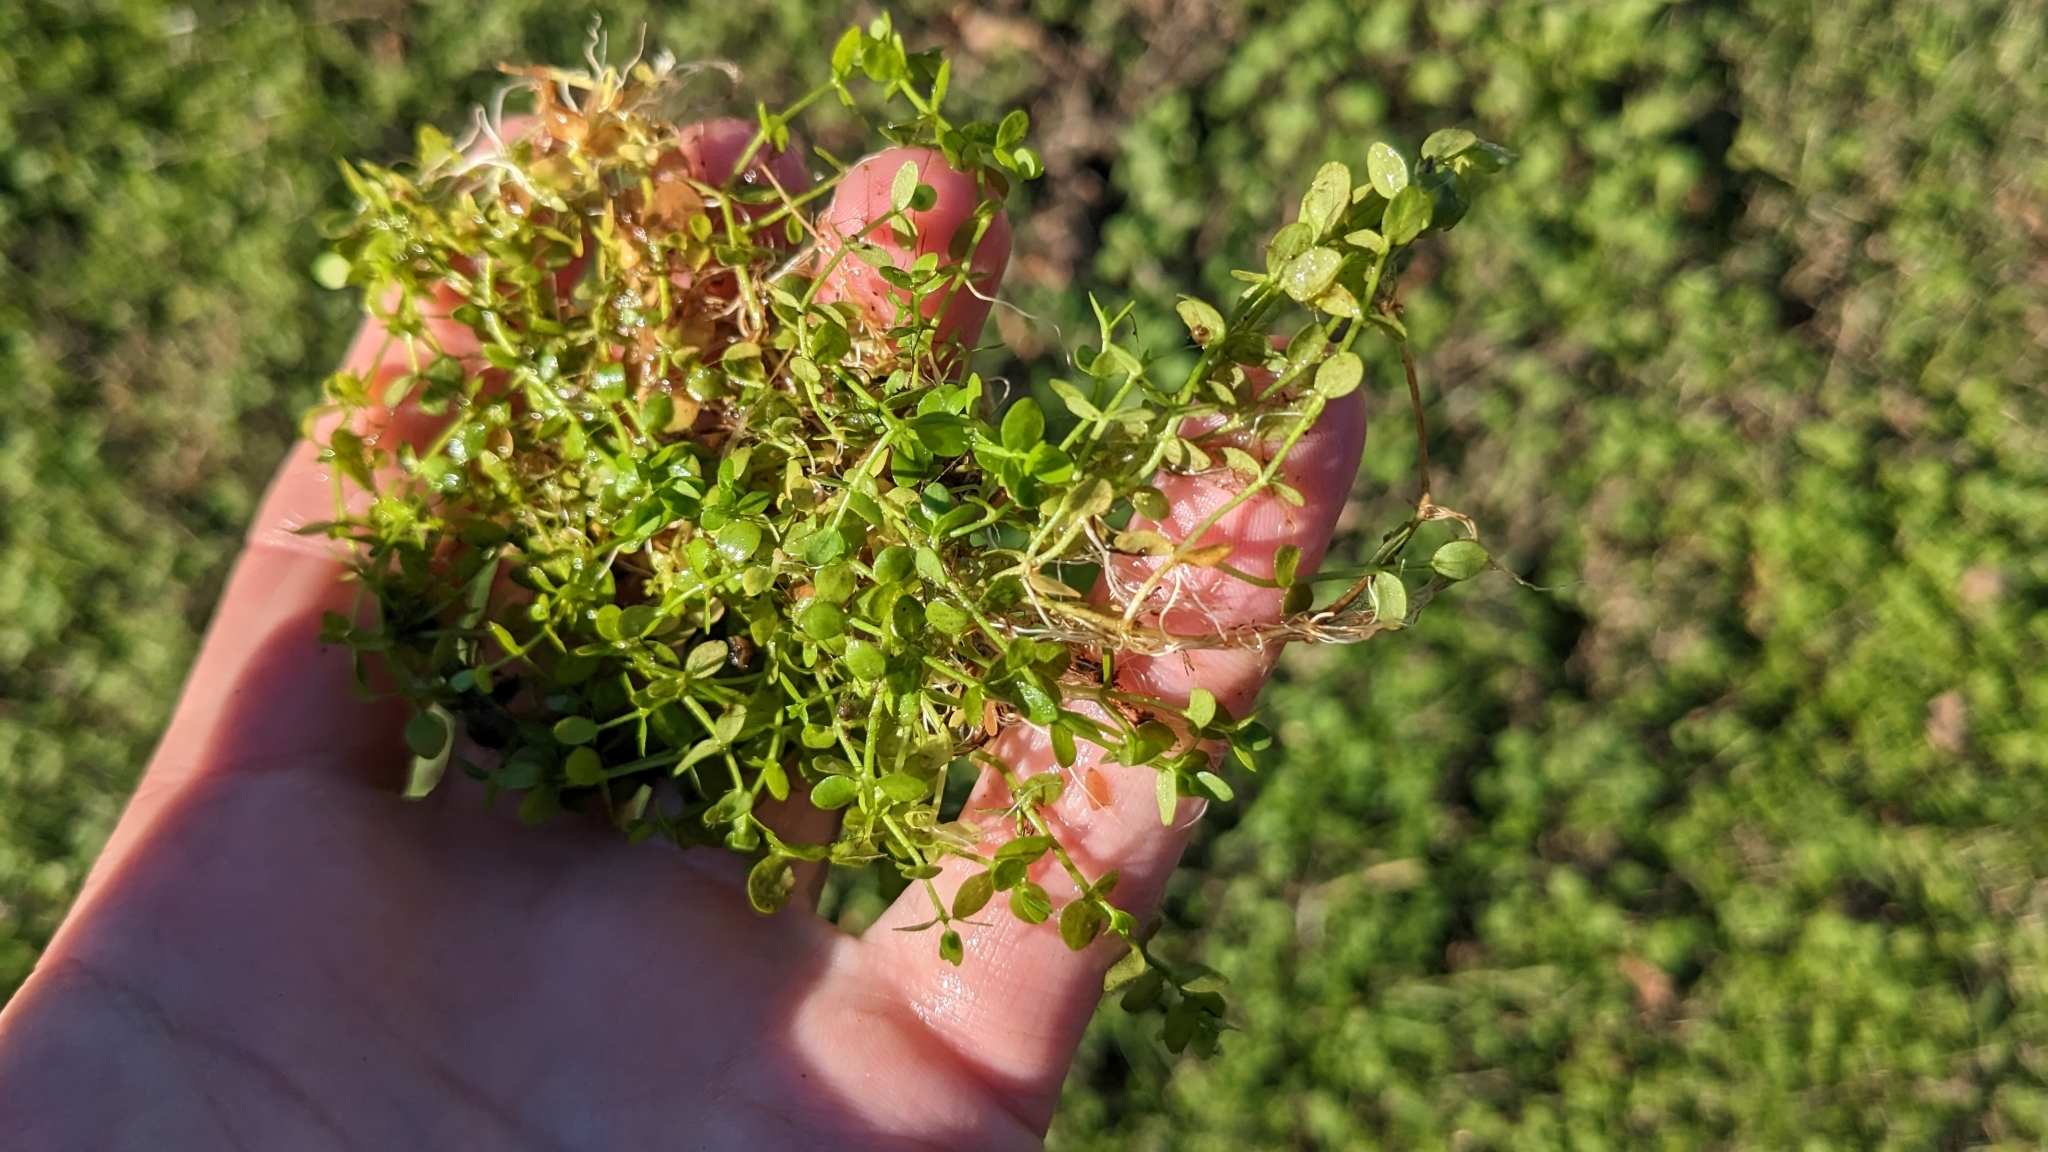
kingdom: Plantae
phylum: Tracheophyta
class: Magnoliopsida
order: Lamiales
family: Linderniaceae
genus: Micranthemum
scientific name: Micranthemum umbrosum
